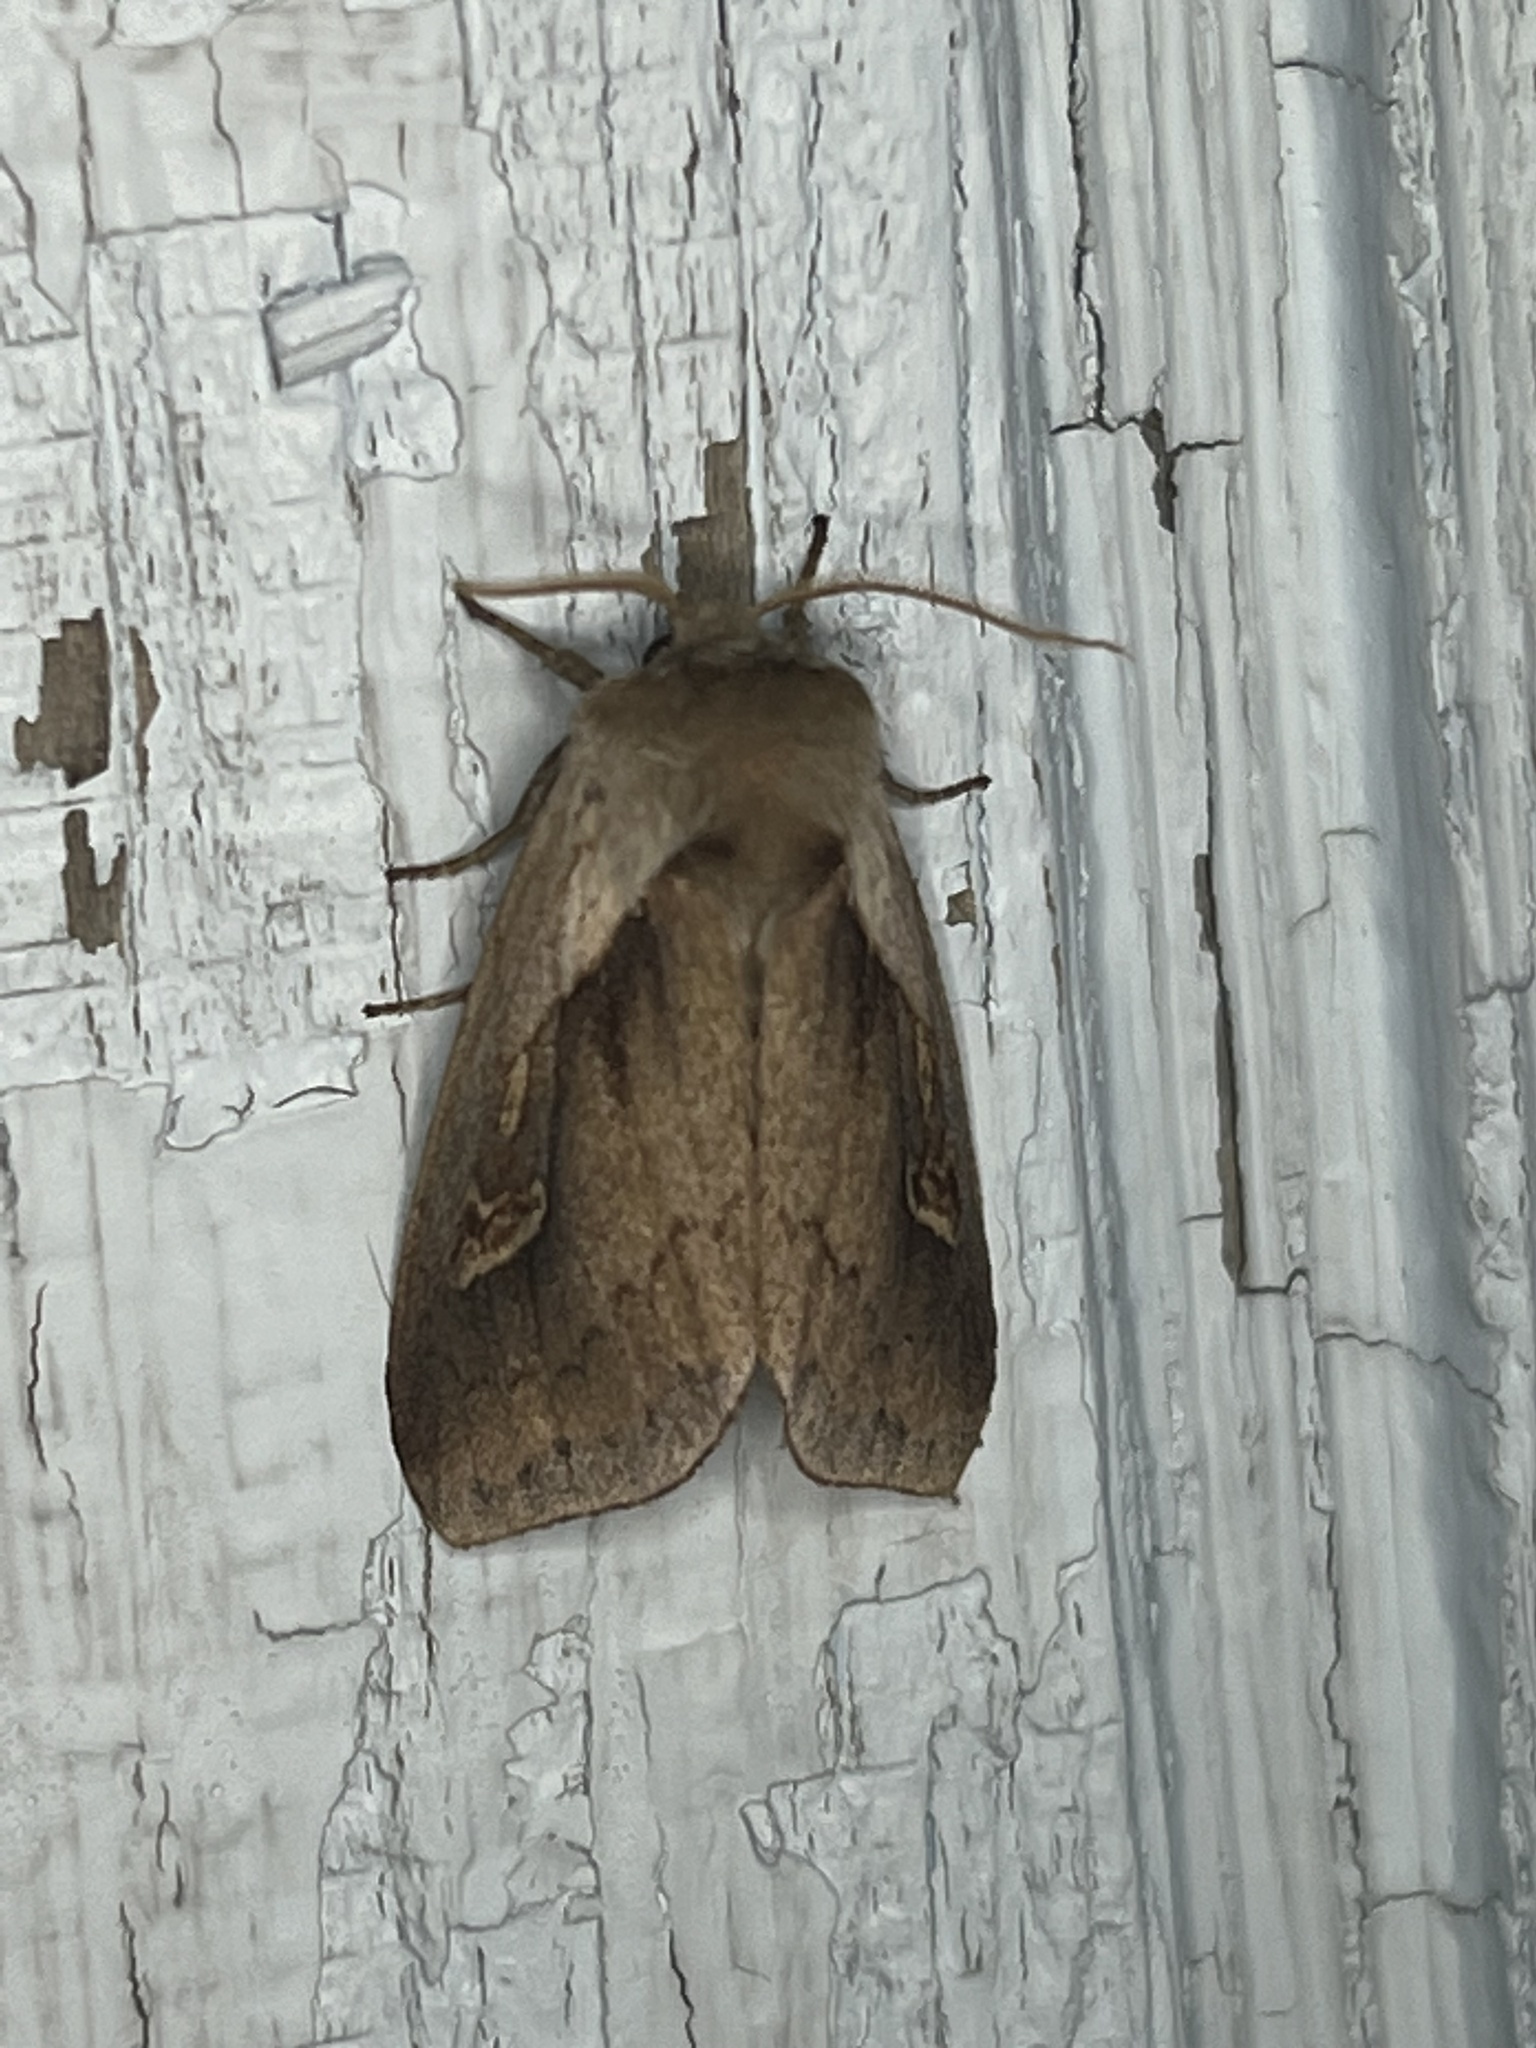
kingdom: Animalia
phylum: Arthropoda
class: Insecta
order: Lepidoptera
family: Noctuidae
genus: Bellura
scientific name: Bellura obliqua
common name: Cattail borer moth
